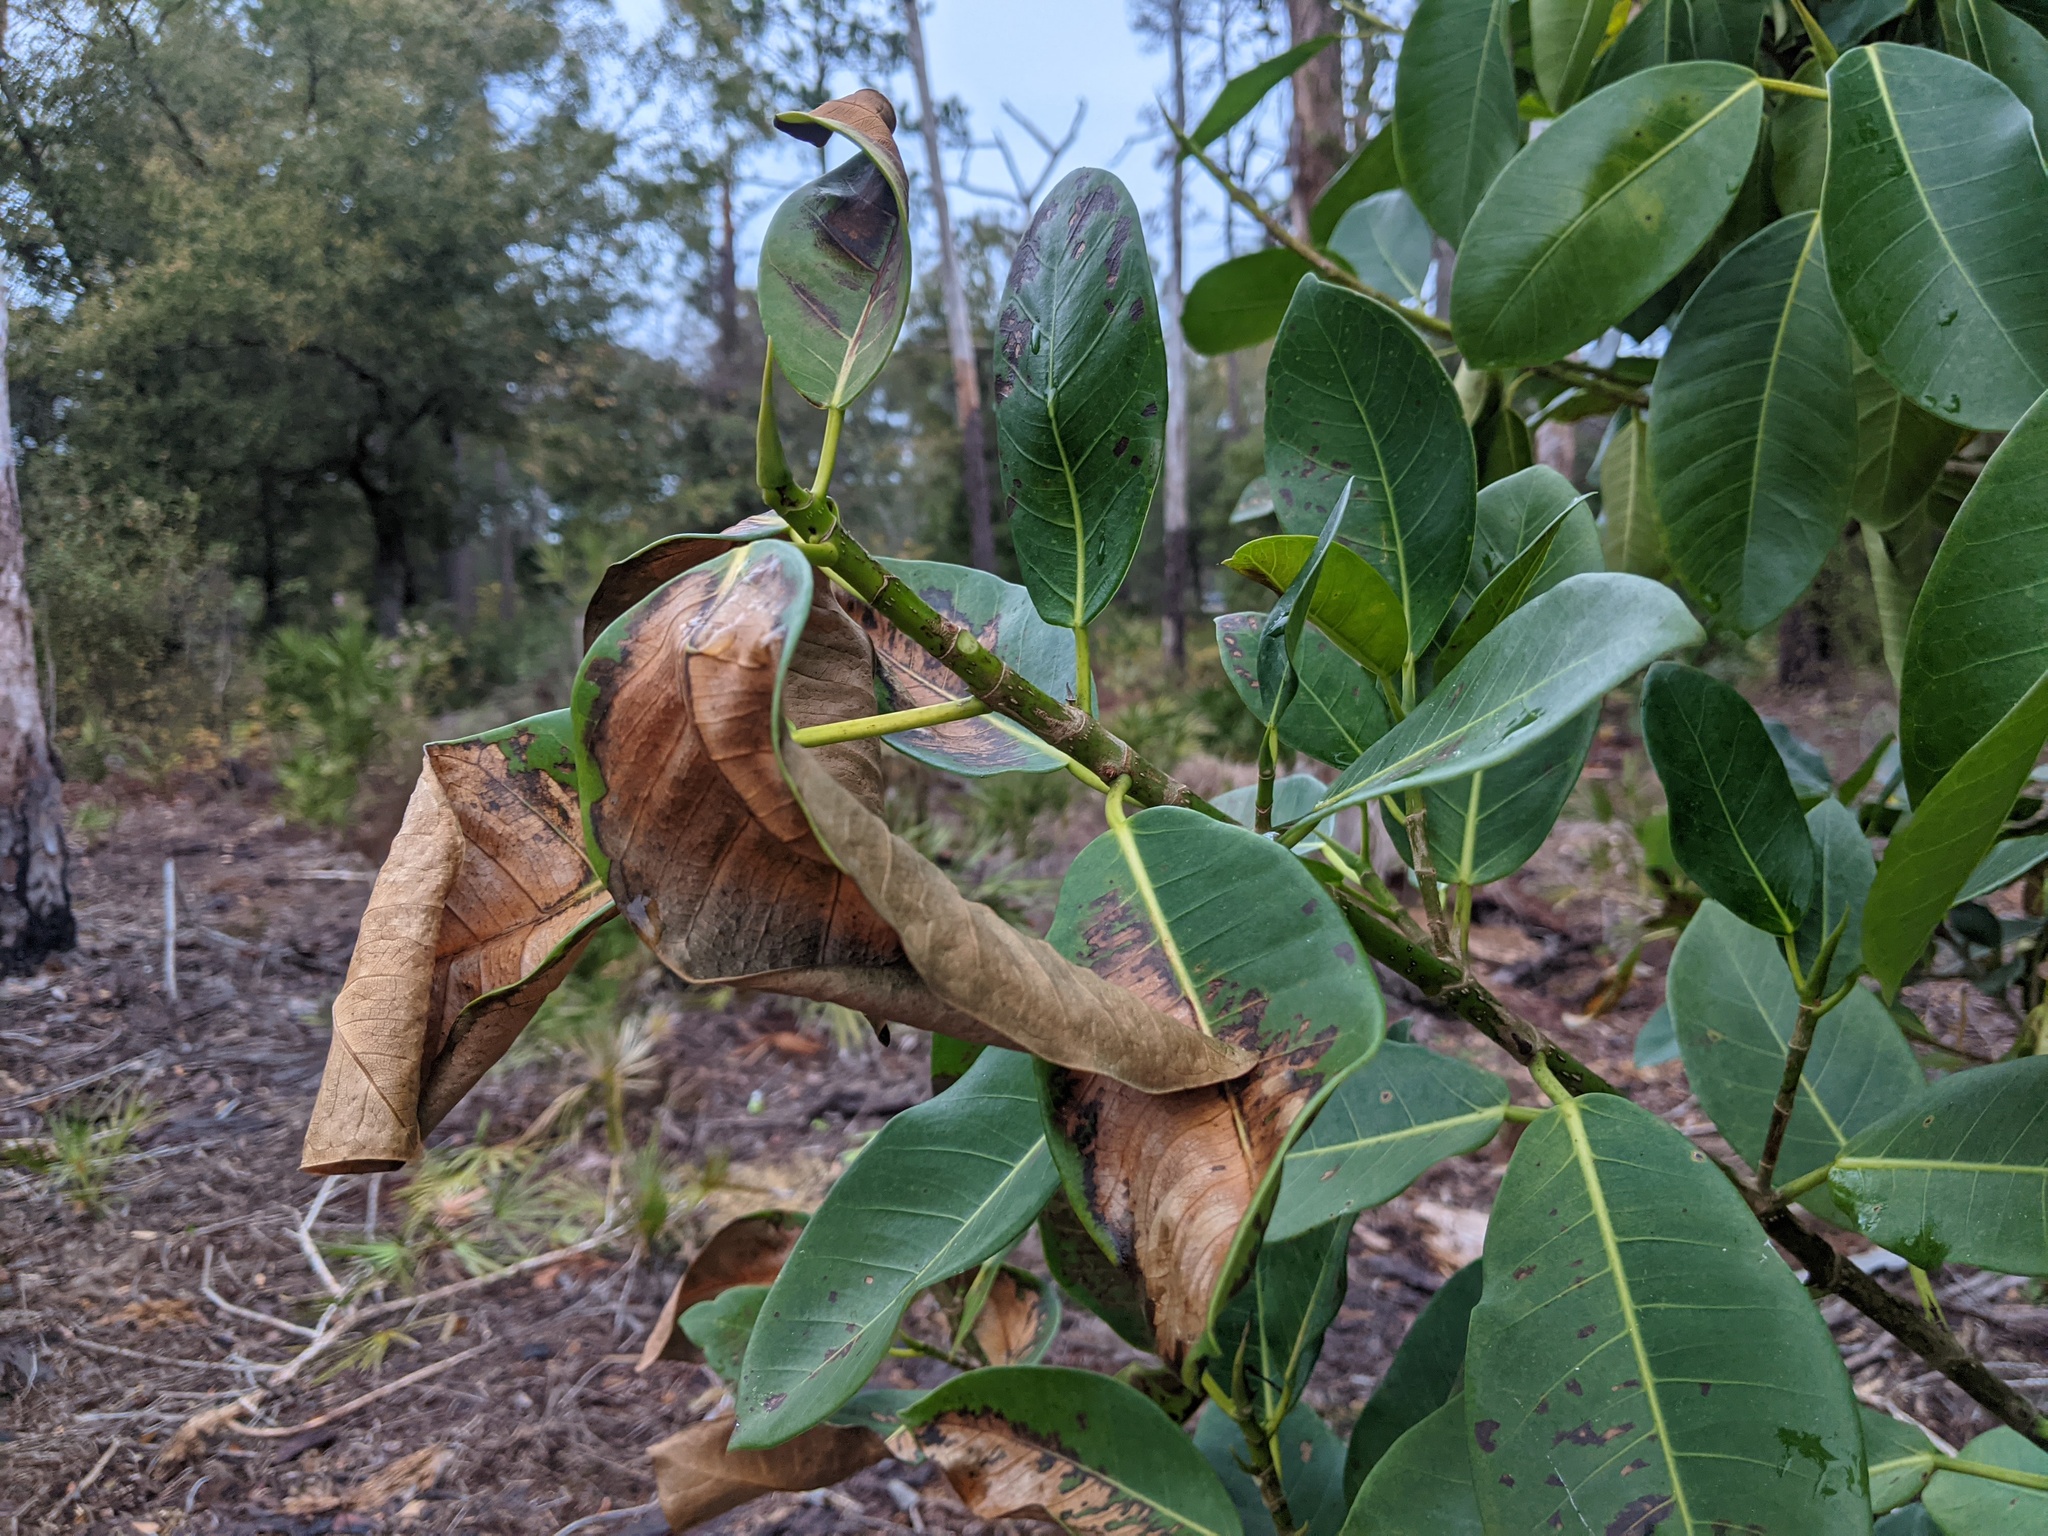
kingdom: Plantae
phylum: Tracheophyta
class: Magnoliopsida
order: Rosales
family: Moraceae
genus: Ficus
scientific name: Ficus aurea
